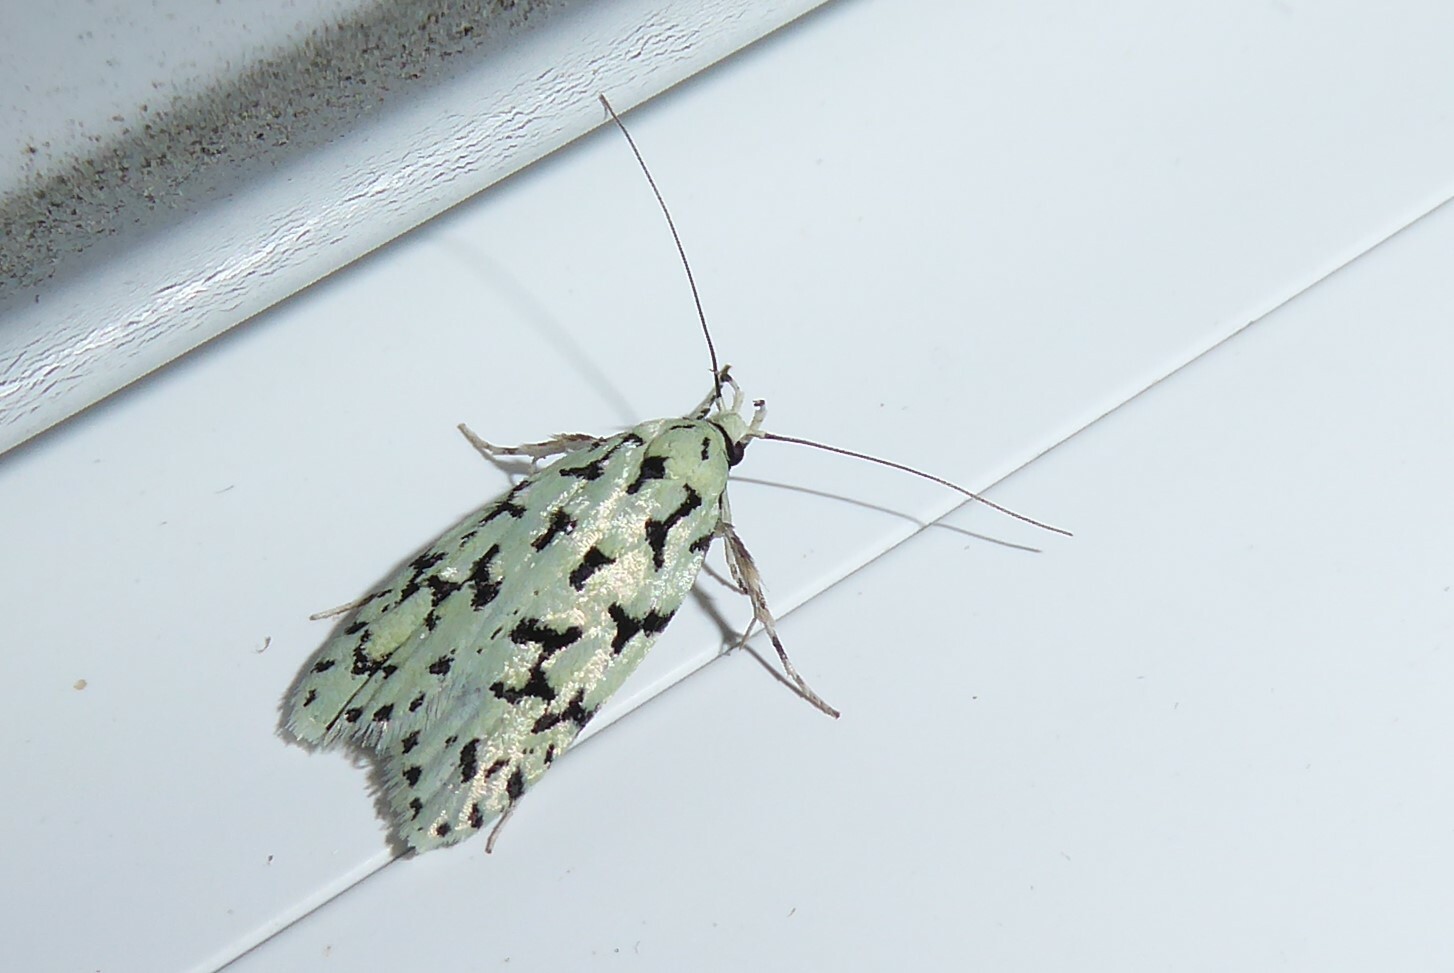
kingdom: Animalia
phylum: Arthropoda
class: Insecta
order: Lepidoptera
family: Oecophoridae
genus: Izatha
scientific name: Izatha huttoni
